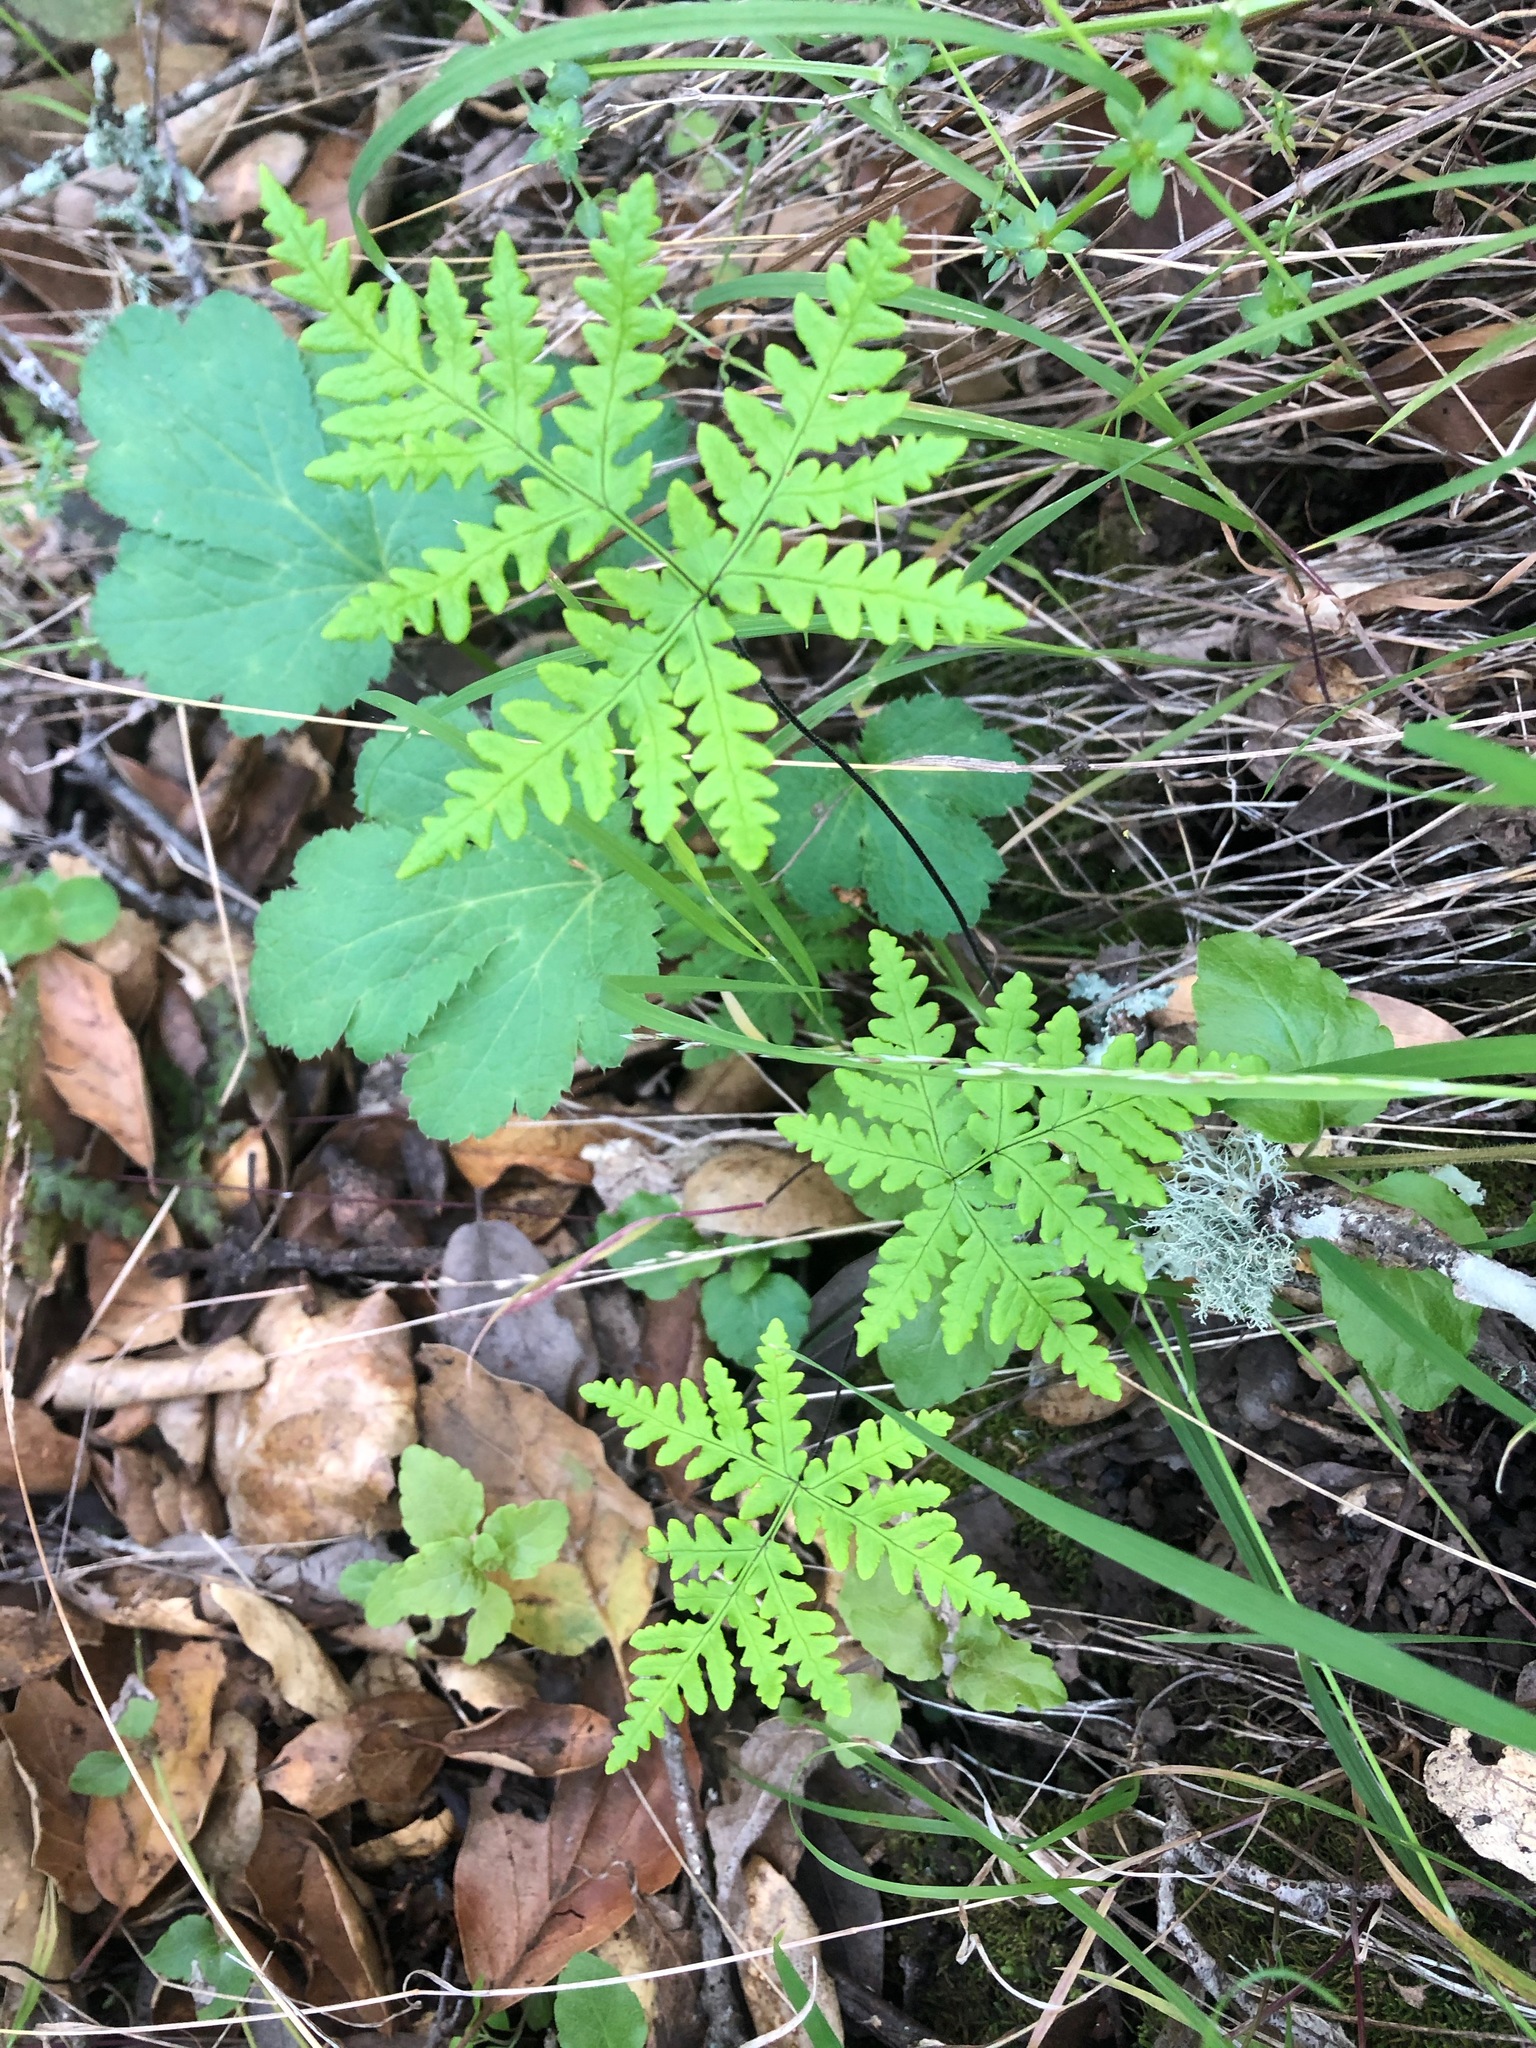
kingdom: Plantae
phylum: Tracheophyta
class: Polypodiopsida
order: Polypodiales
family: Pteridaceae
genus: Pentagramma
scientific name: Pentagramma triangularis
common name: Gold fern
